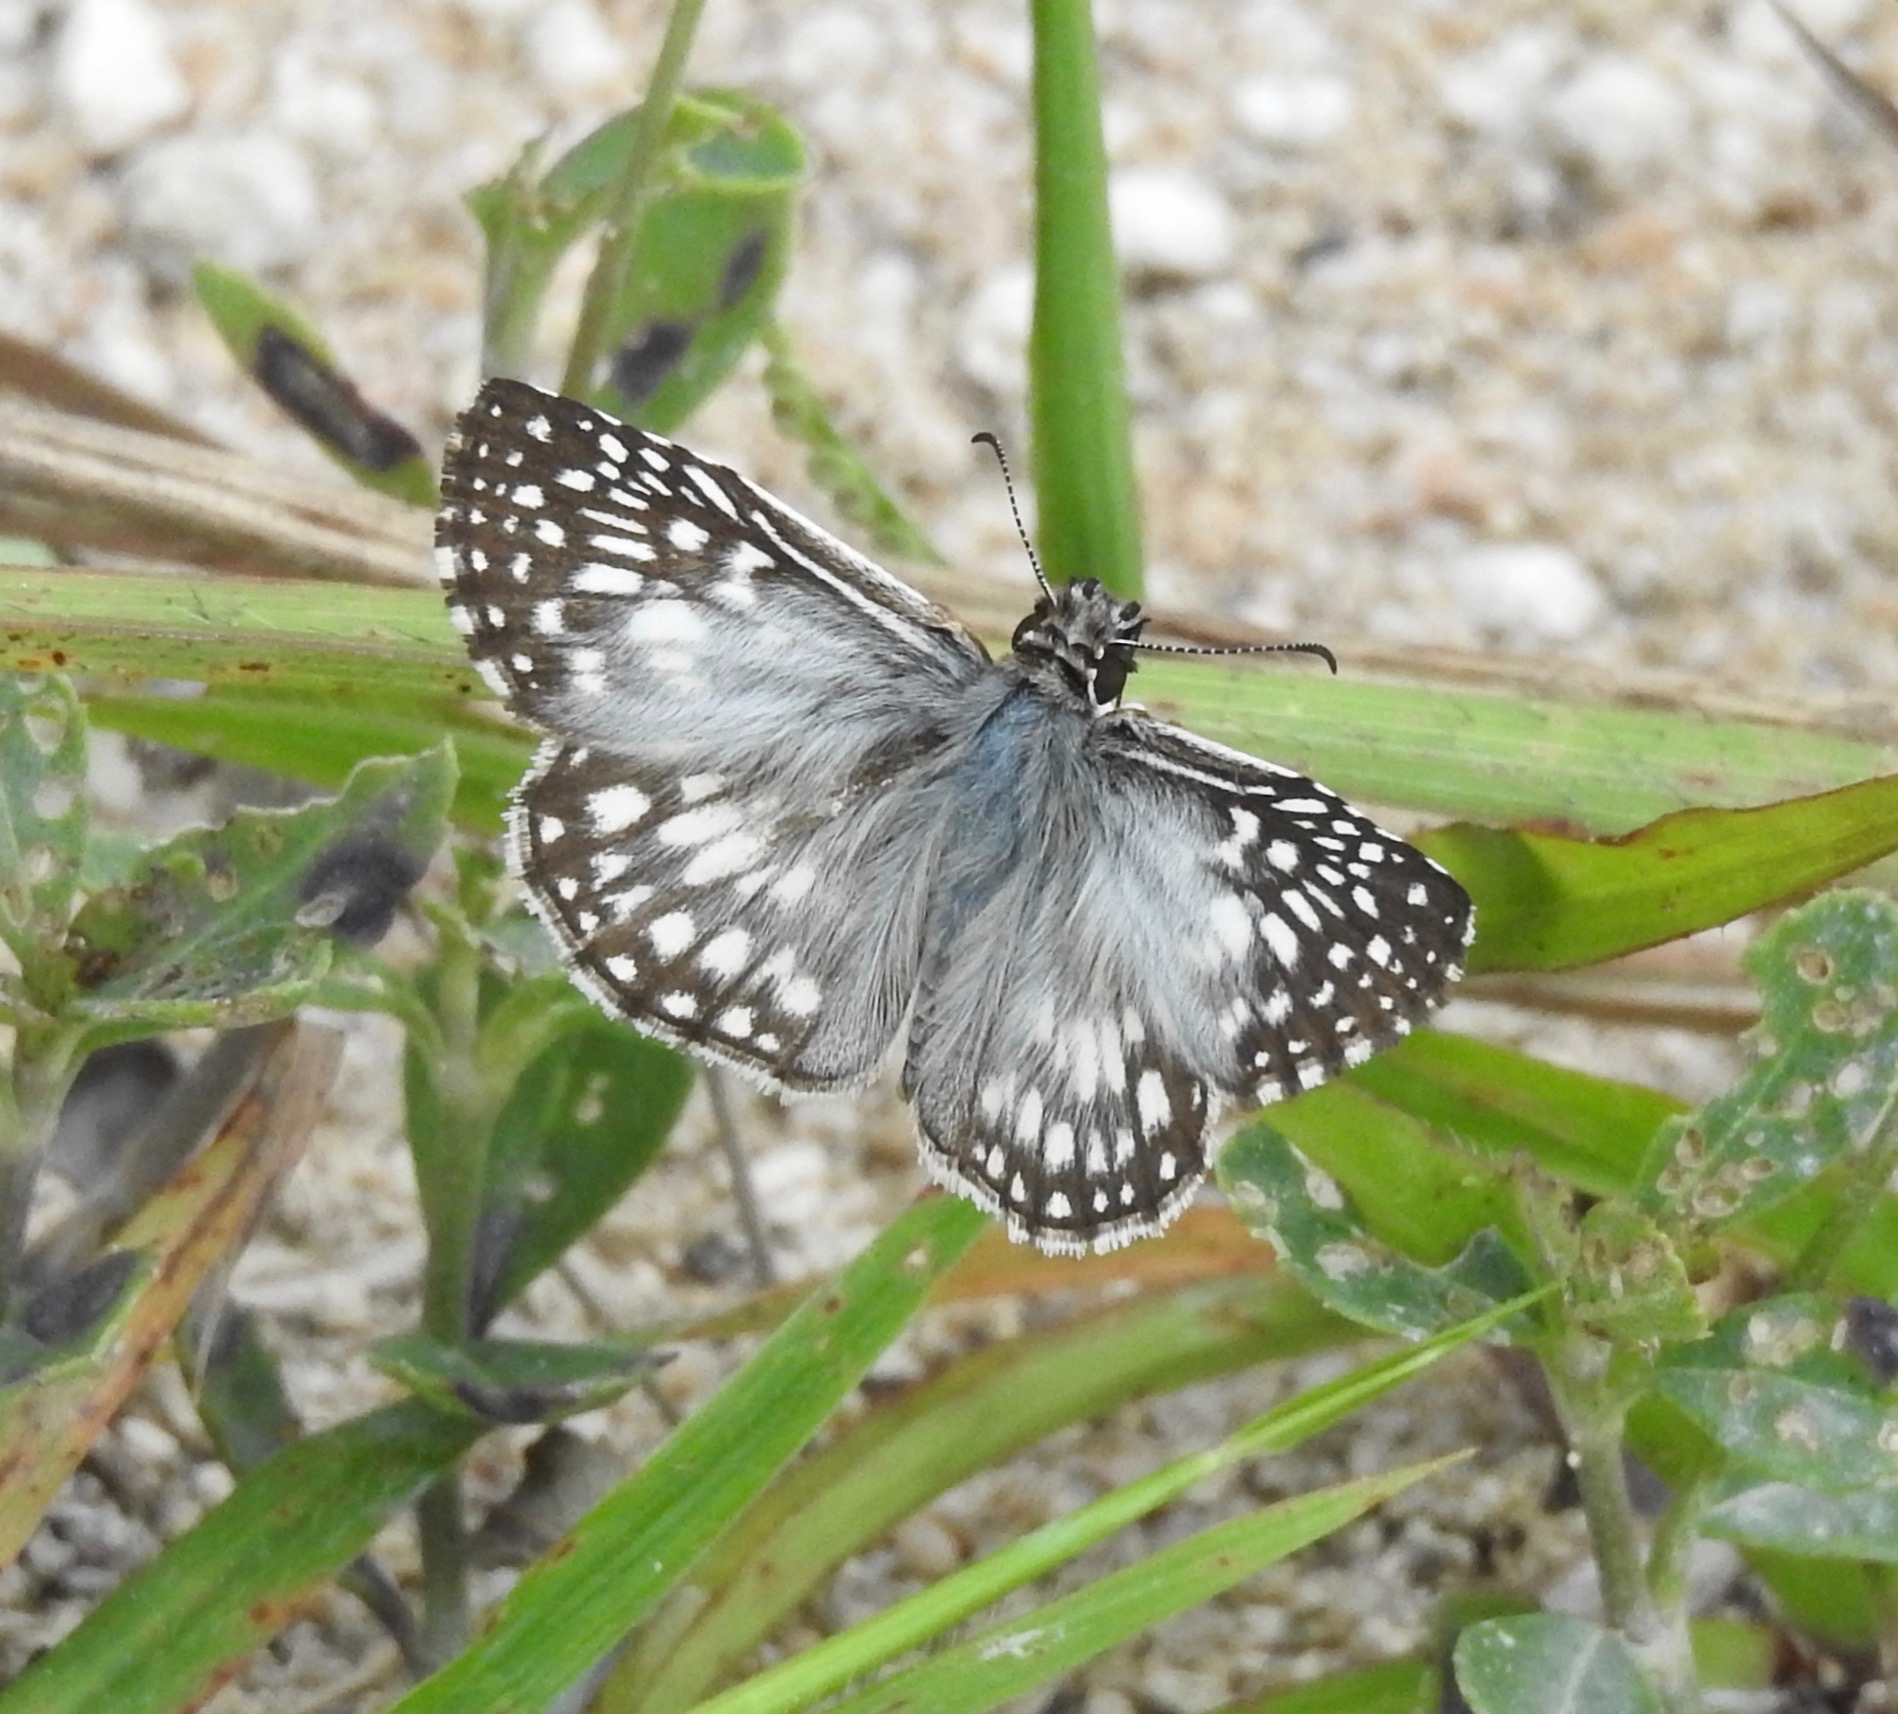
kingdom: Animalia
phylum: Arthropoda
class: Insecta
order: Lepidoptera
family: Hesperiidae
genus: Pyrgus
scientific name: Pyrgus oileus
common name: Tropical checkered-skipper
